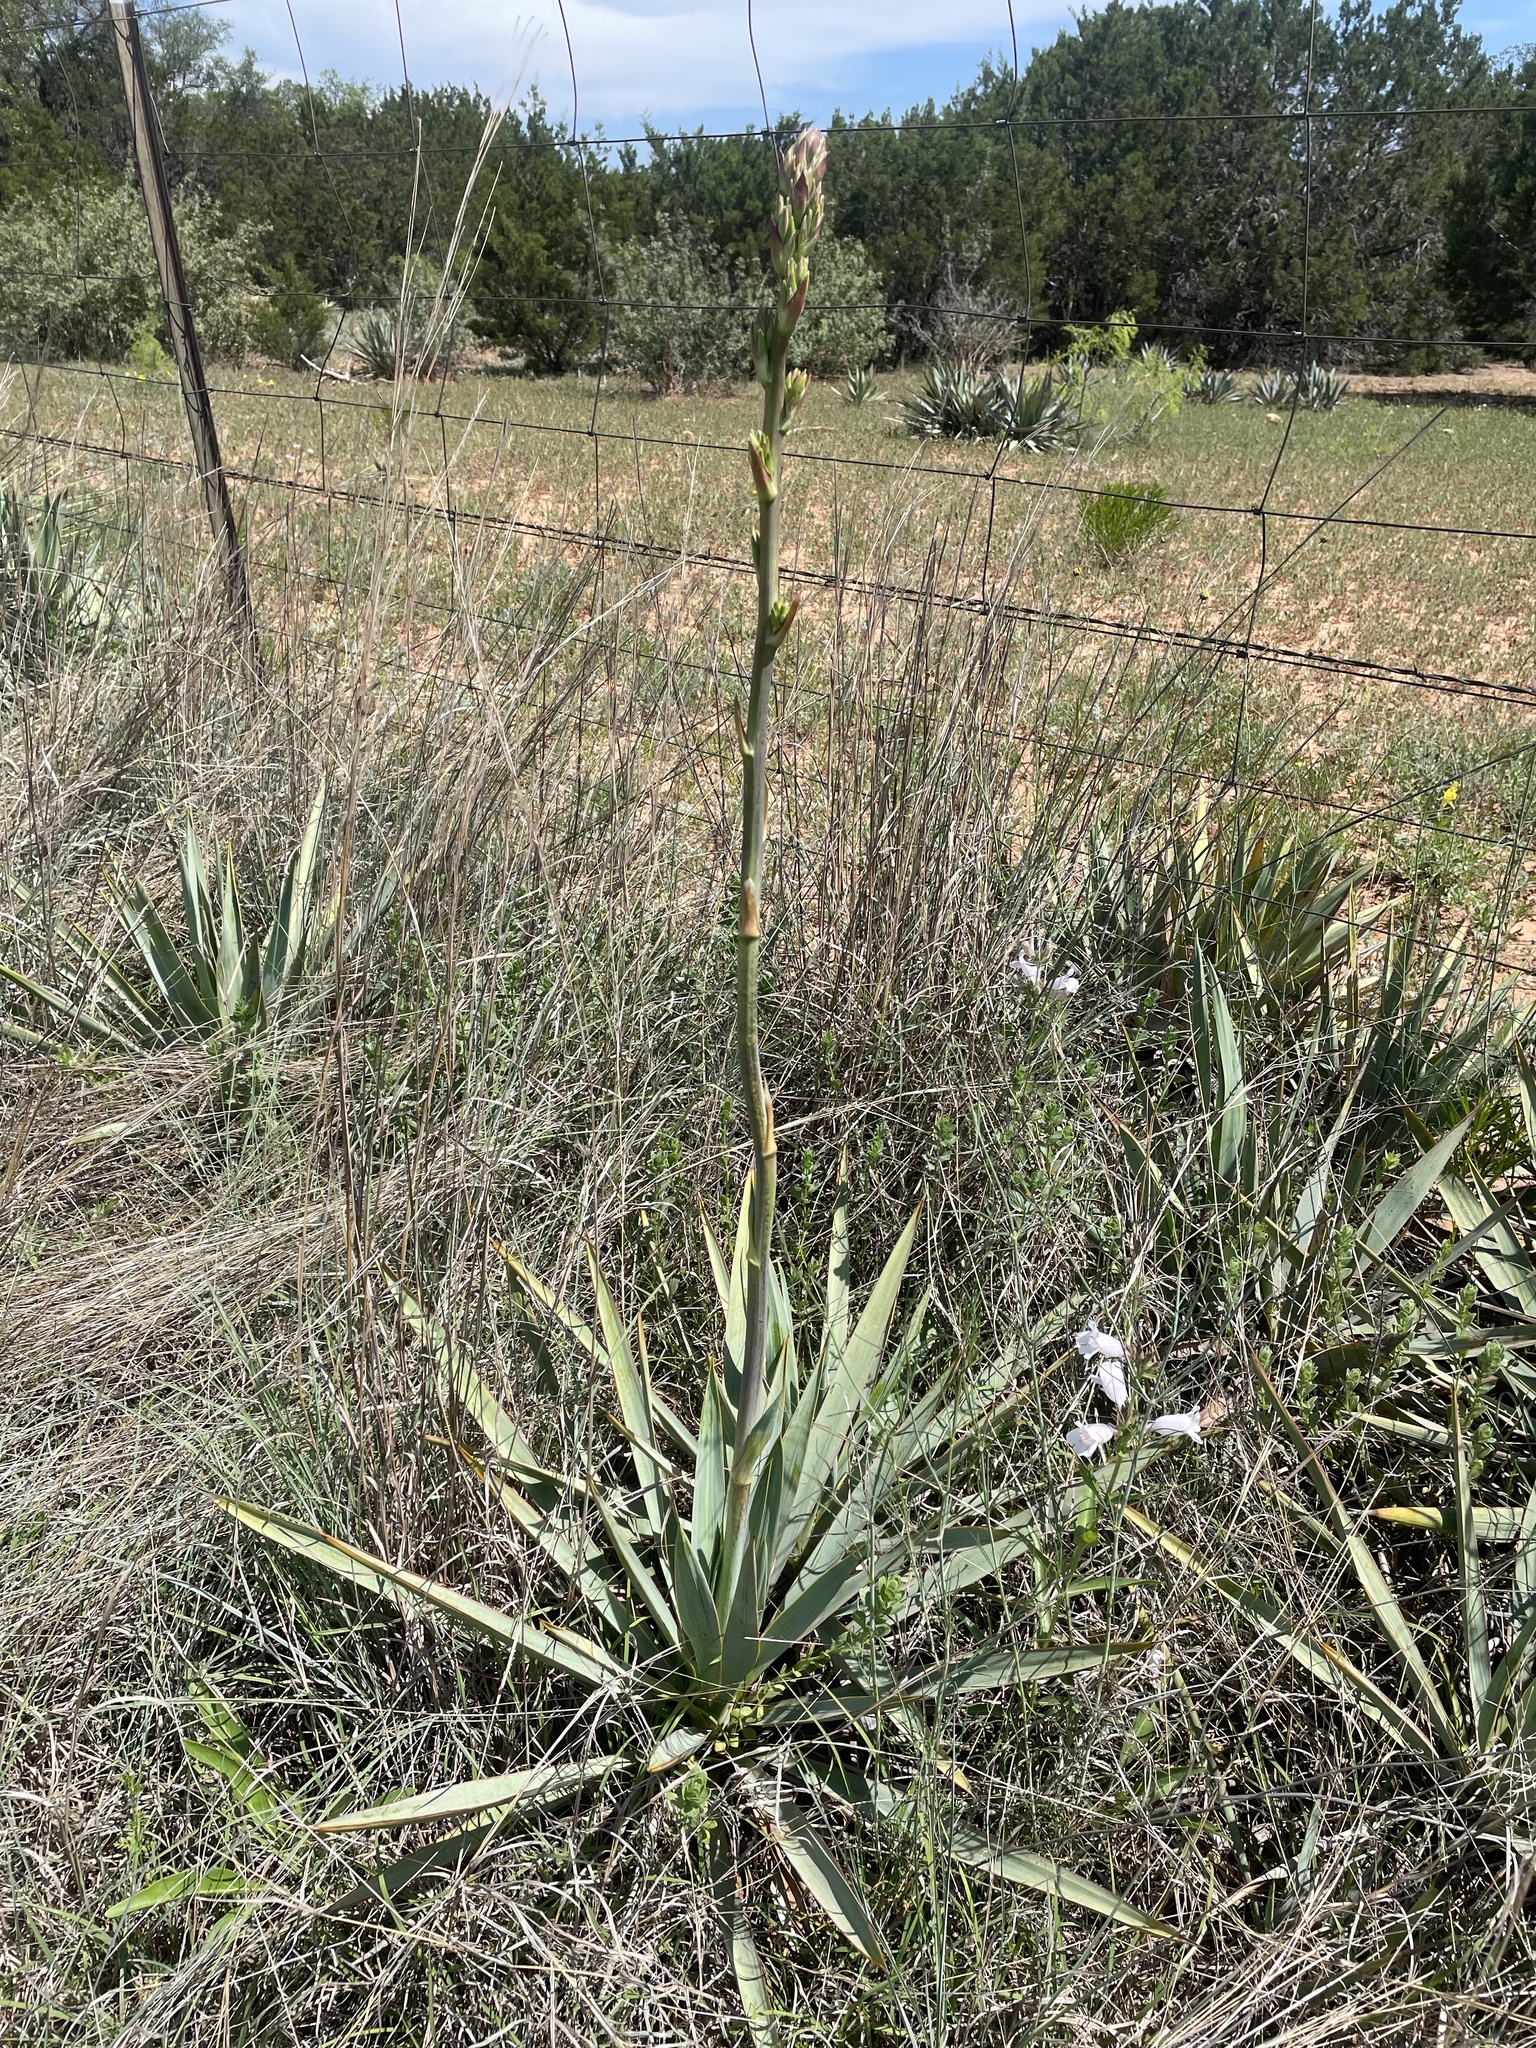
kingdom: Plantae
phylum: Tracheophyta
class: Liliopsida
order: Asparagales
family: Asparagaceae
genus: Yucca
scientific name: Yucca pallida
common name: Pale leaf yucca
